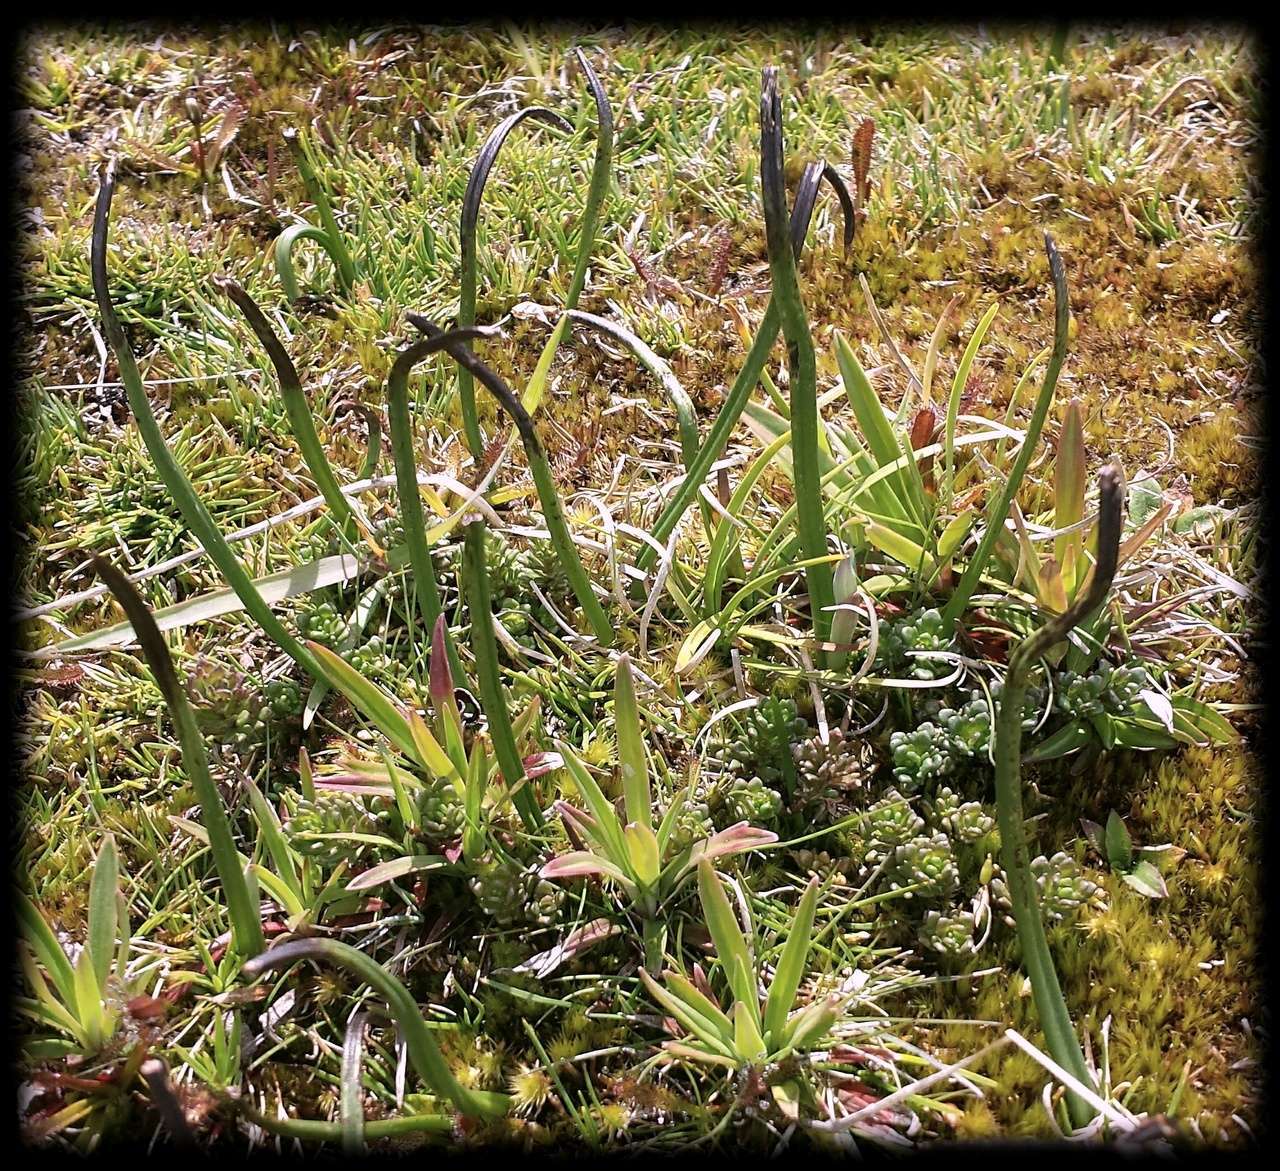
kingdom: Plantae
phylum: Tracheophyta
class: Liliopsida
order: Asparagales
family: Orchidaceae
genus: Thelymitra
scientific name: Thelymitra cyanea
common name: Blue sun-orchid
